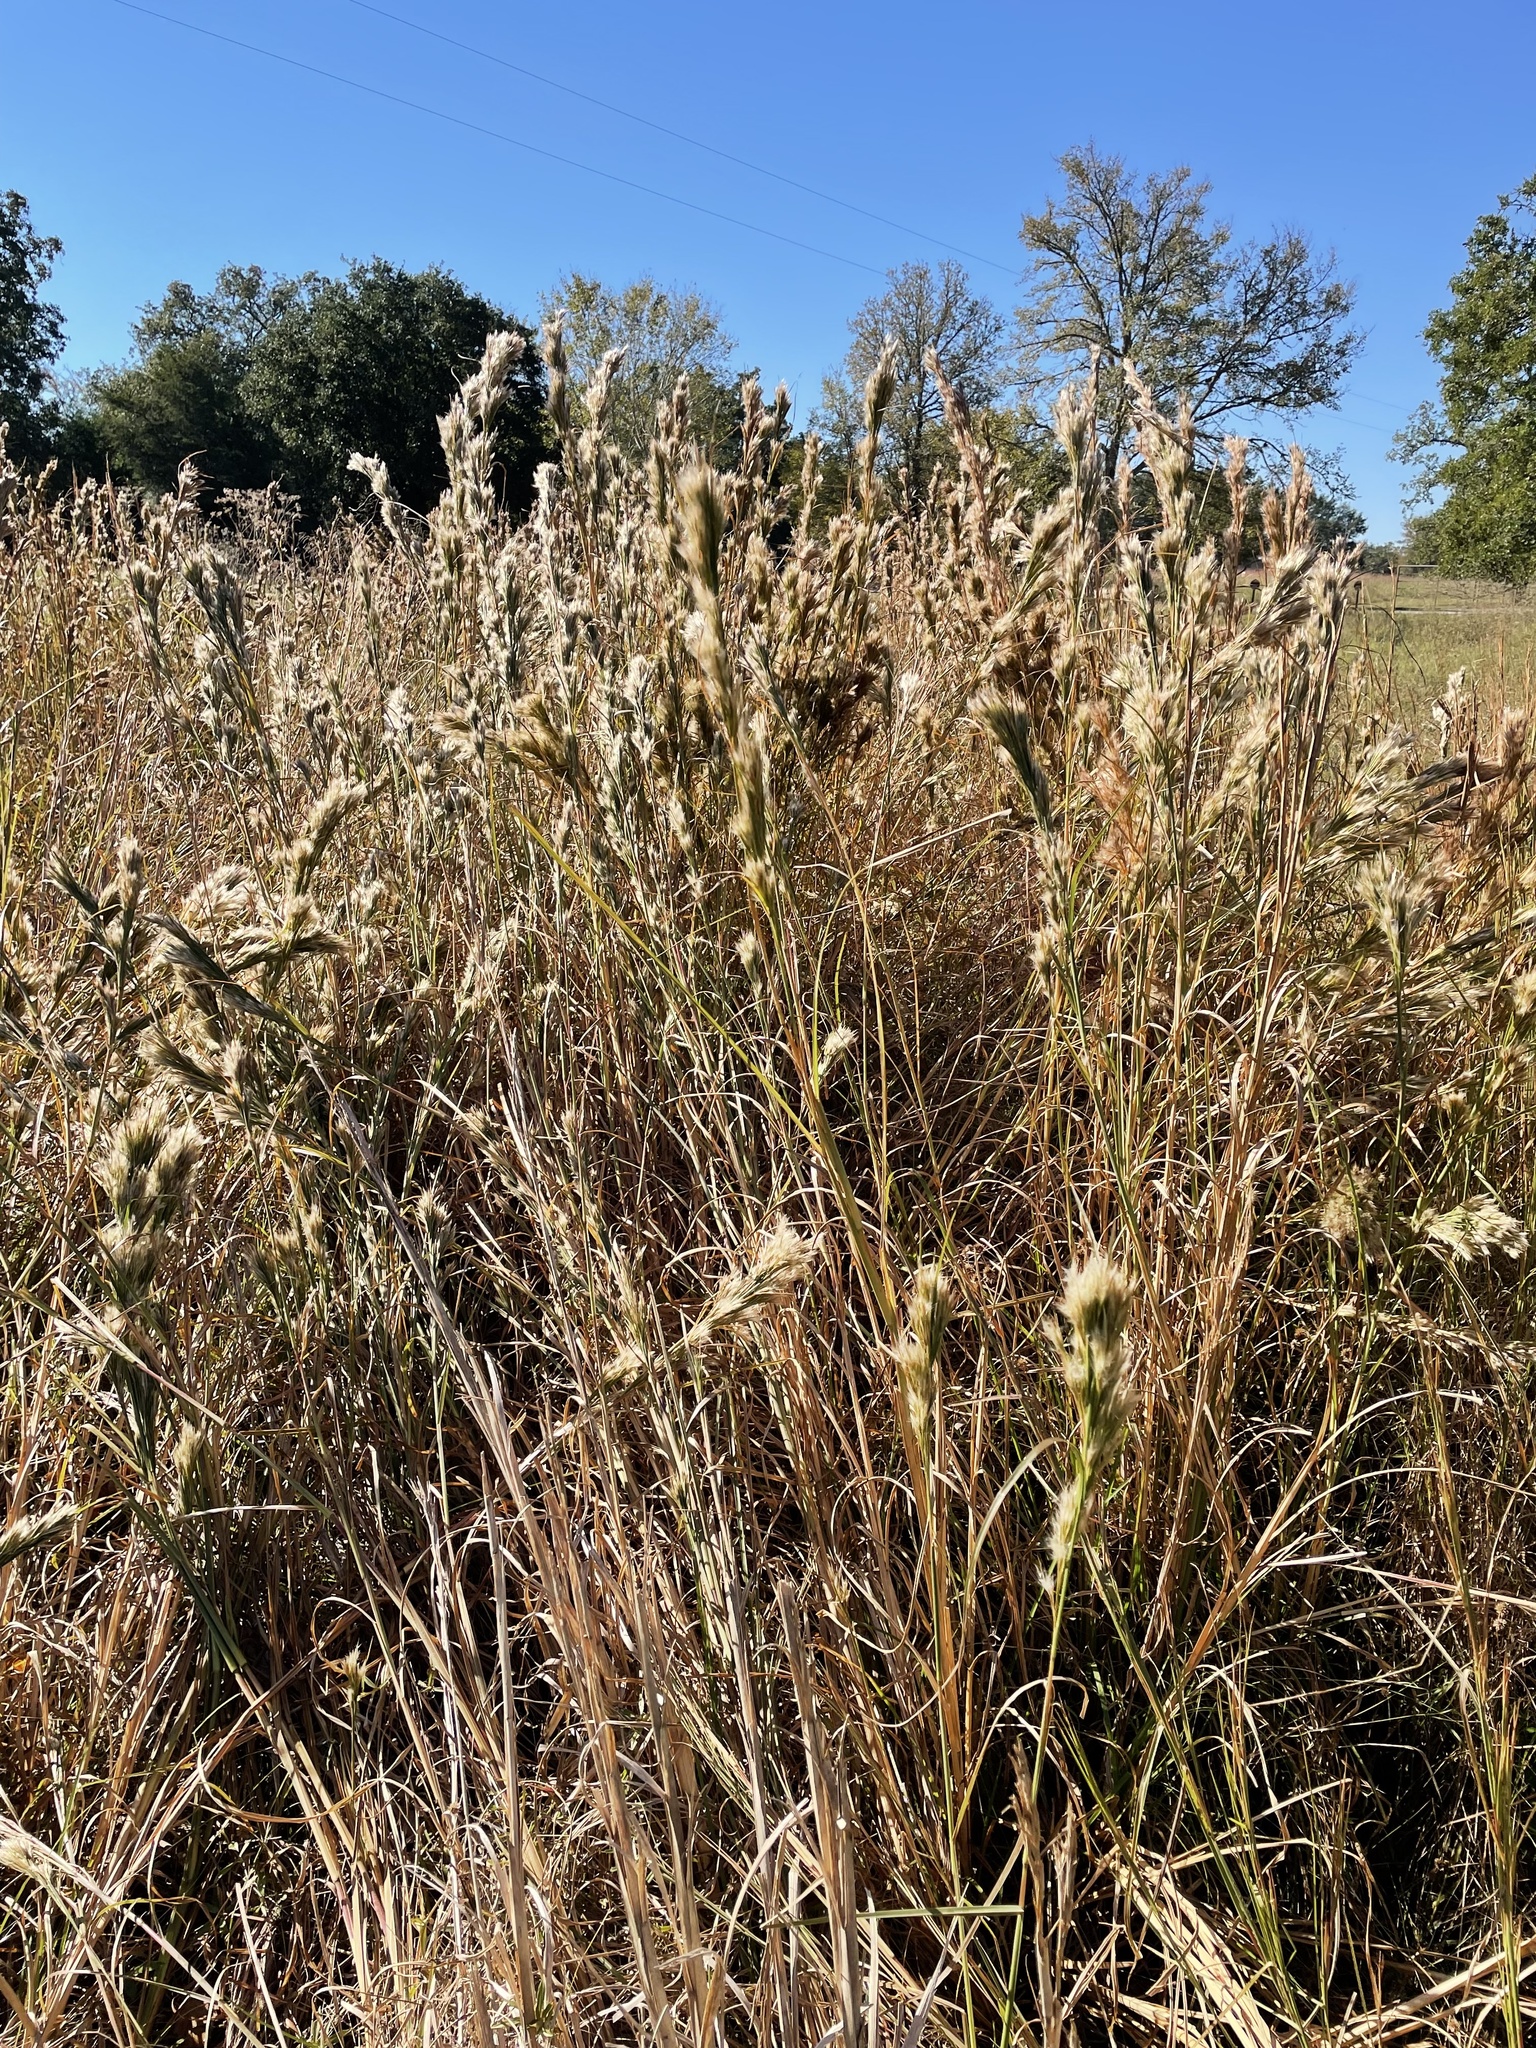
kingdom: Plantae
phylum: Tracheophyta
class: Liliopsida
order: Poales
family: Poaceae
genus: Andropogon
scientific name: Andropogon tenuispatheus
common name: Bushy bluestem
